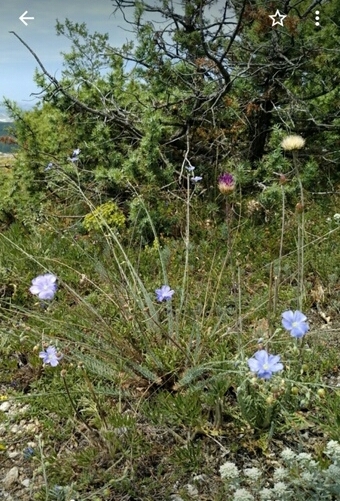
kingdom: Plantae
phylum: Tracheophyta
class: Magnoliopsida
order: Malpighiales
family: Linaceae
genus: Linum
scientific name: Linum austriacum
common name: Austrian flax
